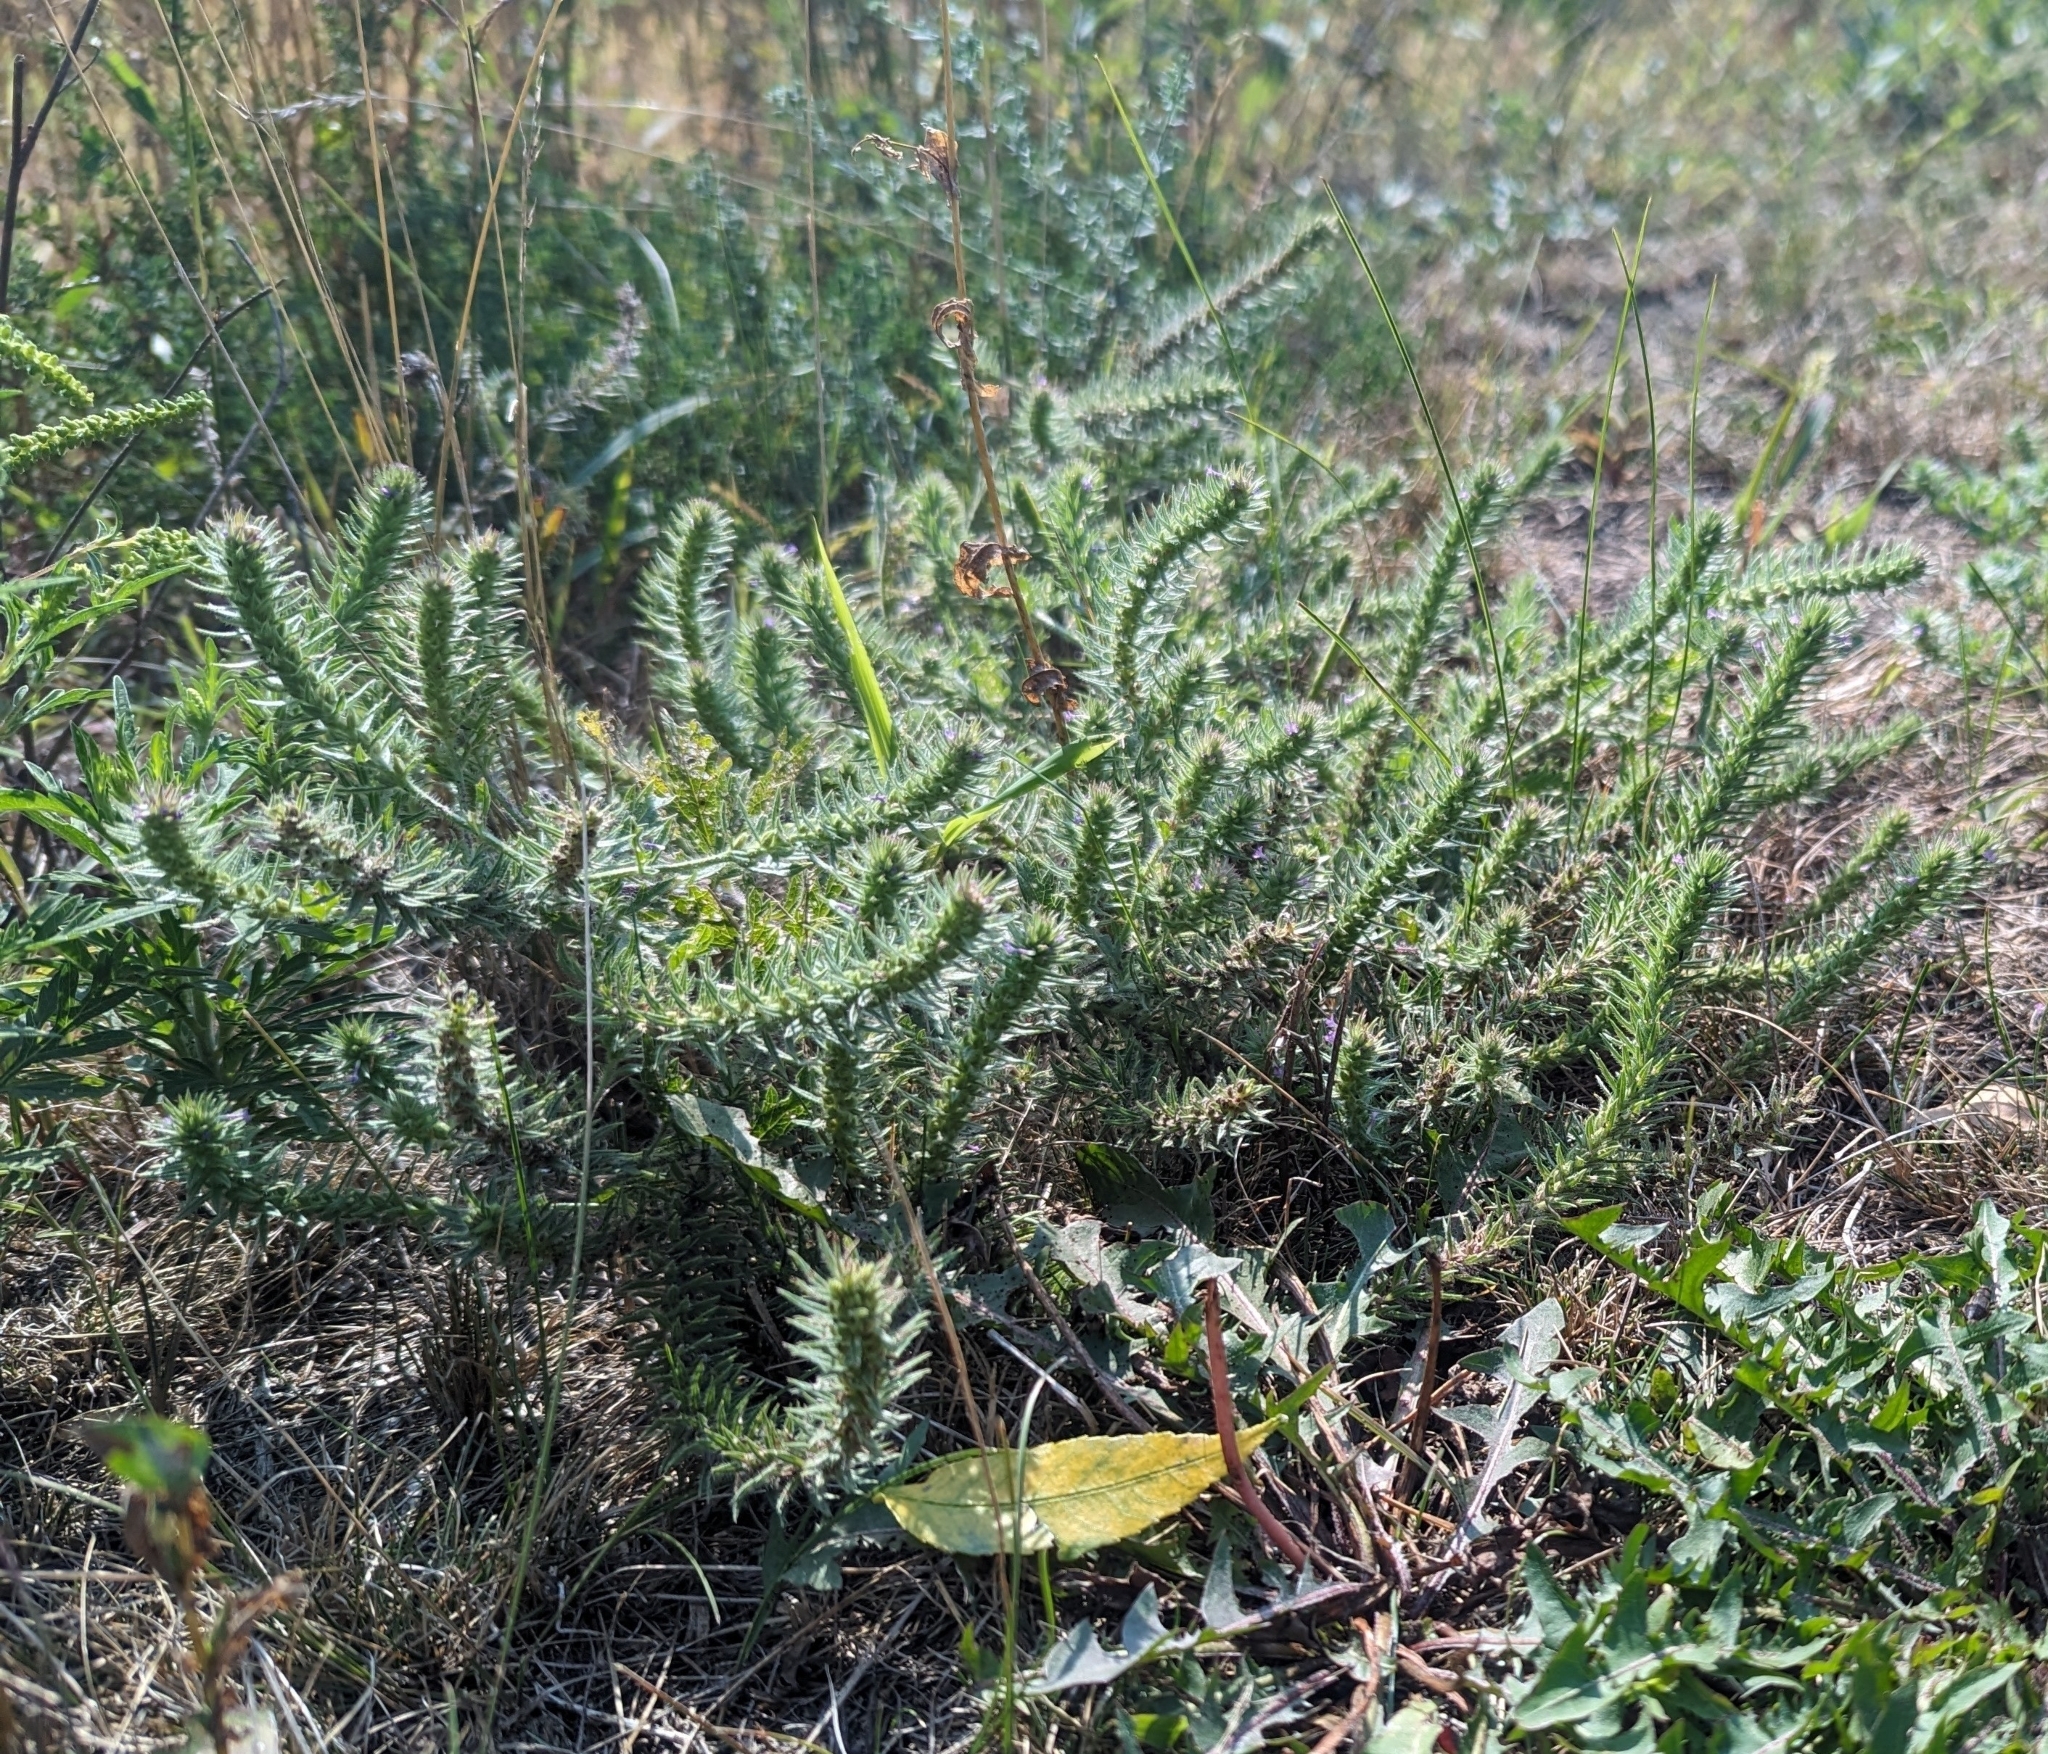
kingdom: Plantae
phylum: Tracheophyta
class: Magnoliopsida
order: Lamiales
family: Verbenaceae
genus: Verbena
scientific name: Verbena bracteata
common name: Bracted vervain
